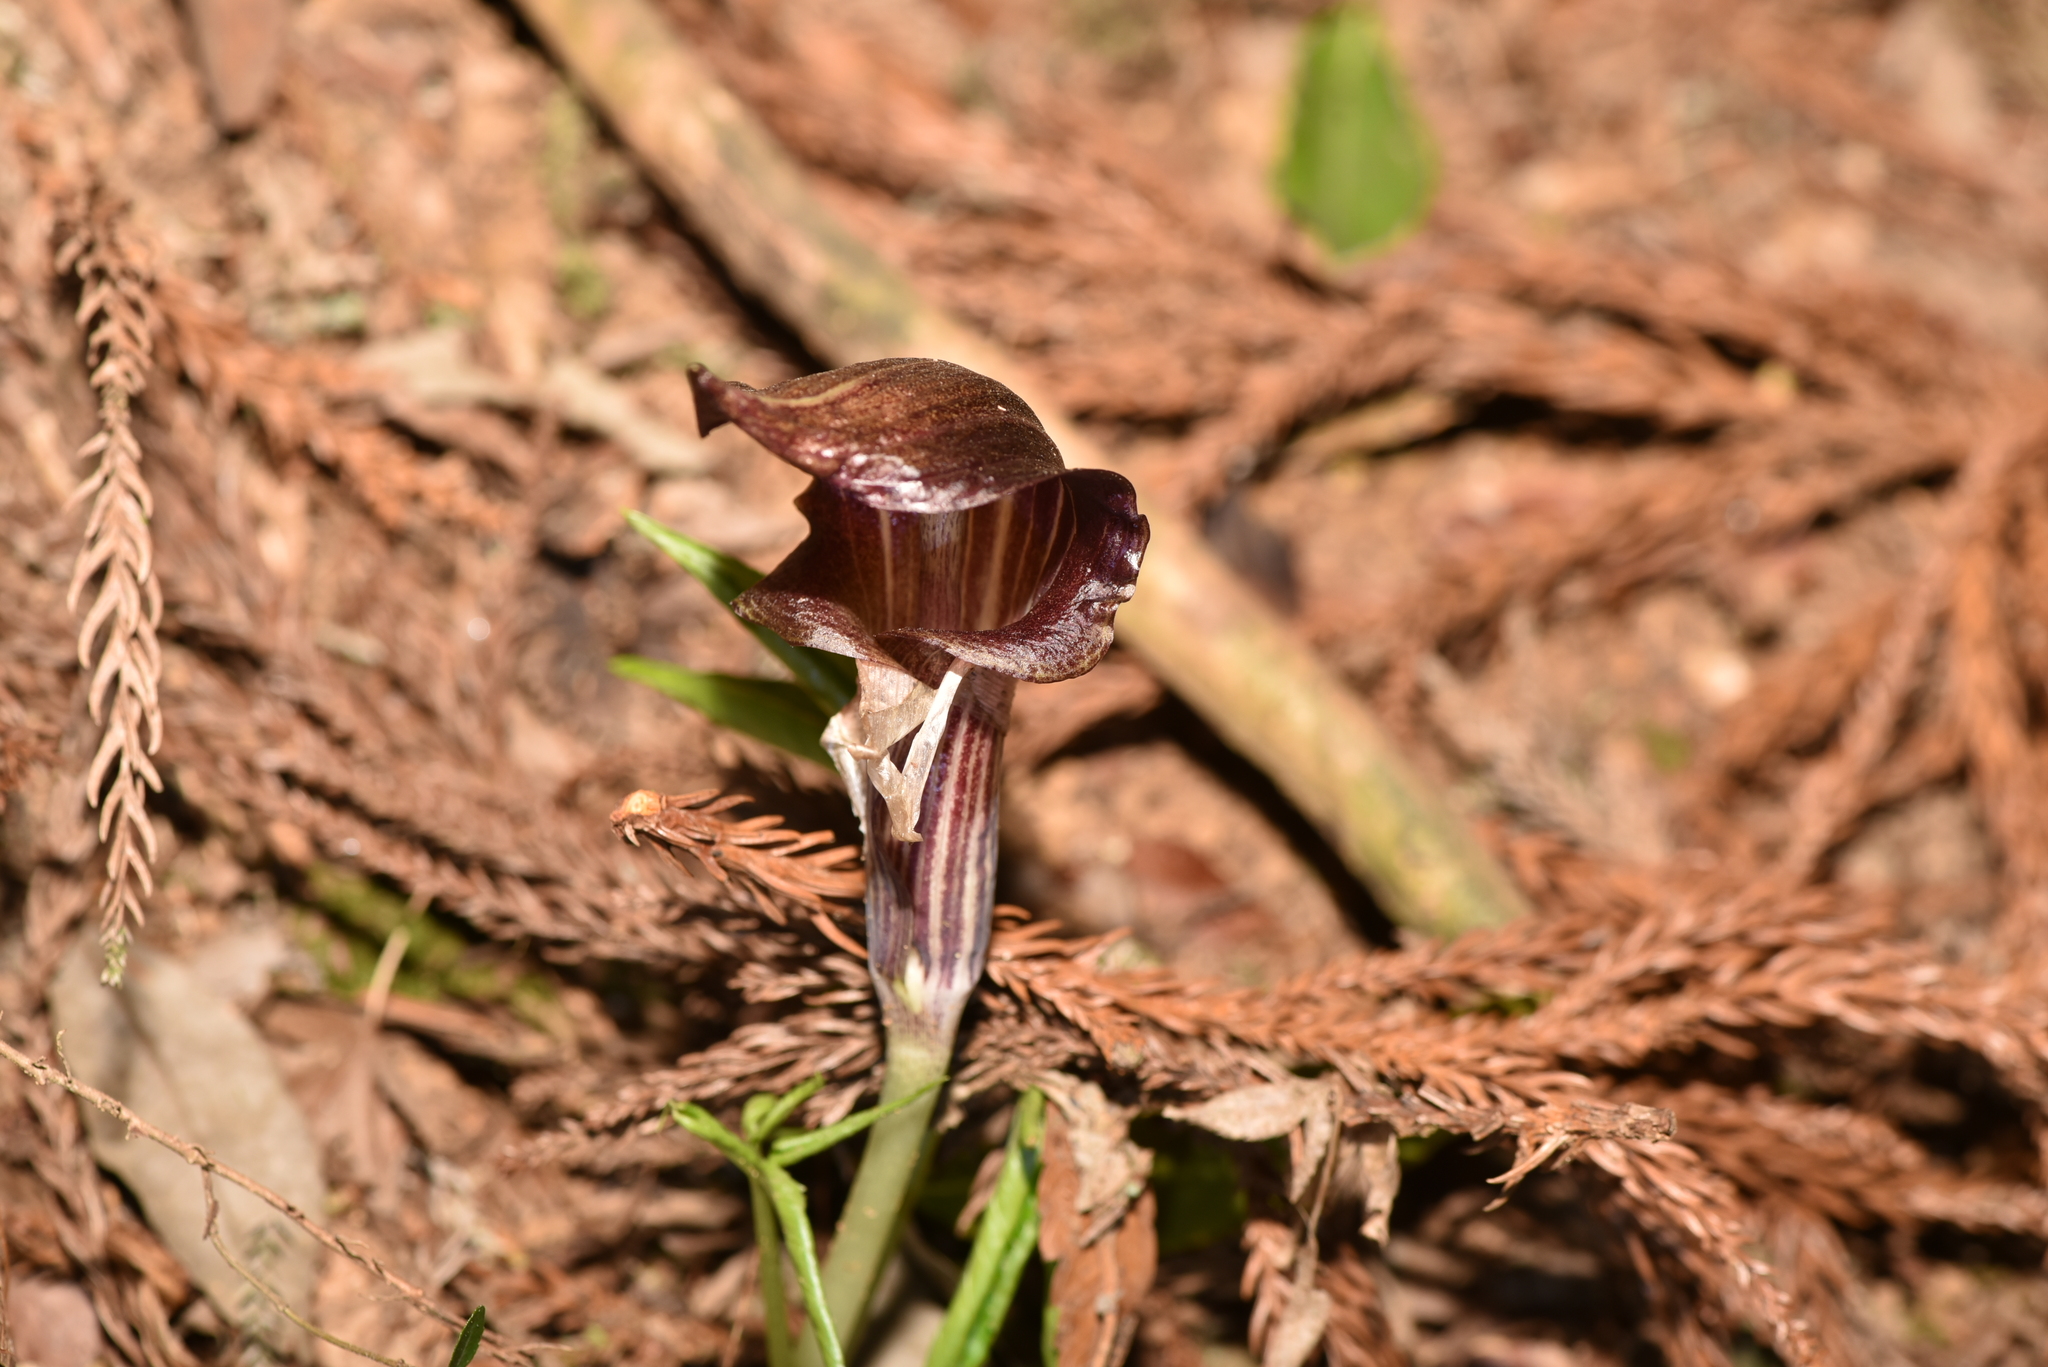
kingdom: Plantae
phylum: Tracheophyta
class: Liliopsida
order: Alismatales
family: Araceae
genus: Arisaema
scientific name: Arisaema limbatum
